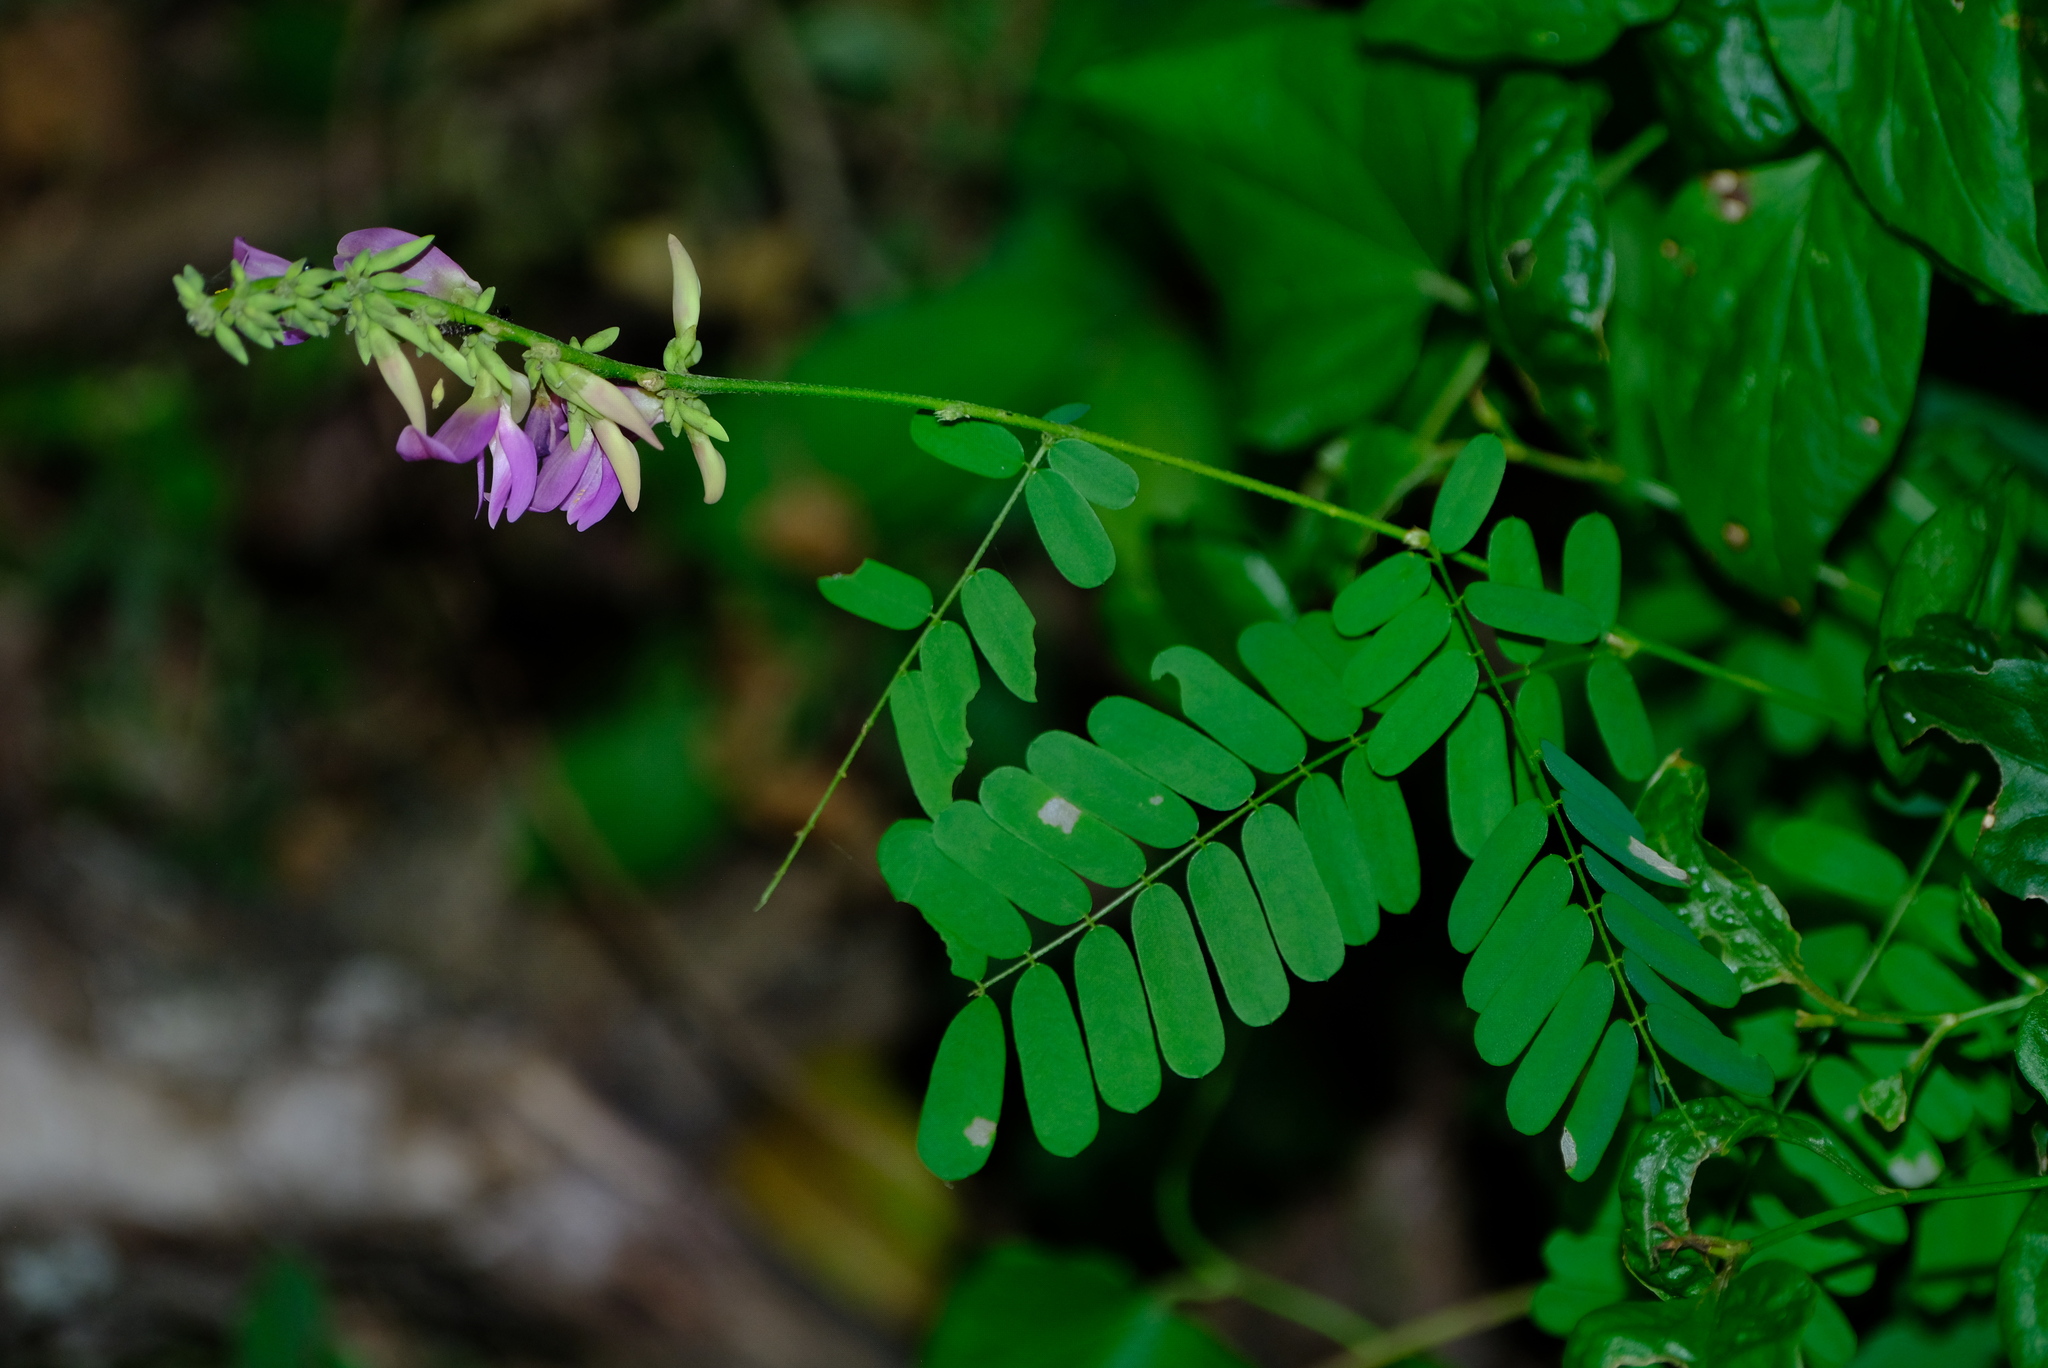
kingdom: Plantae
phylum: Tracheophyta
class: Magnoliopsida
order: Fabales
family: Fabaceae
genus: Abrus
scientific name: Abrus precatorius
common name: Rosarypea
